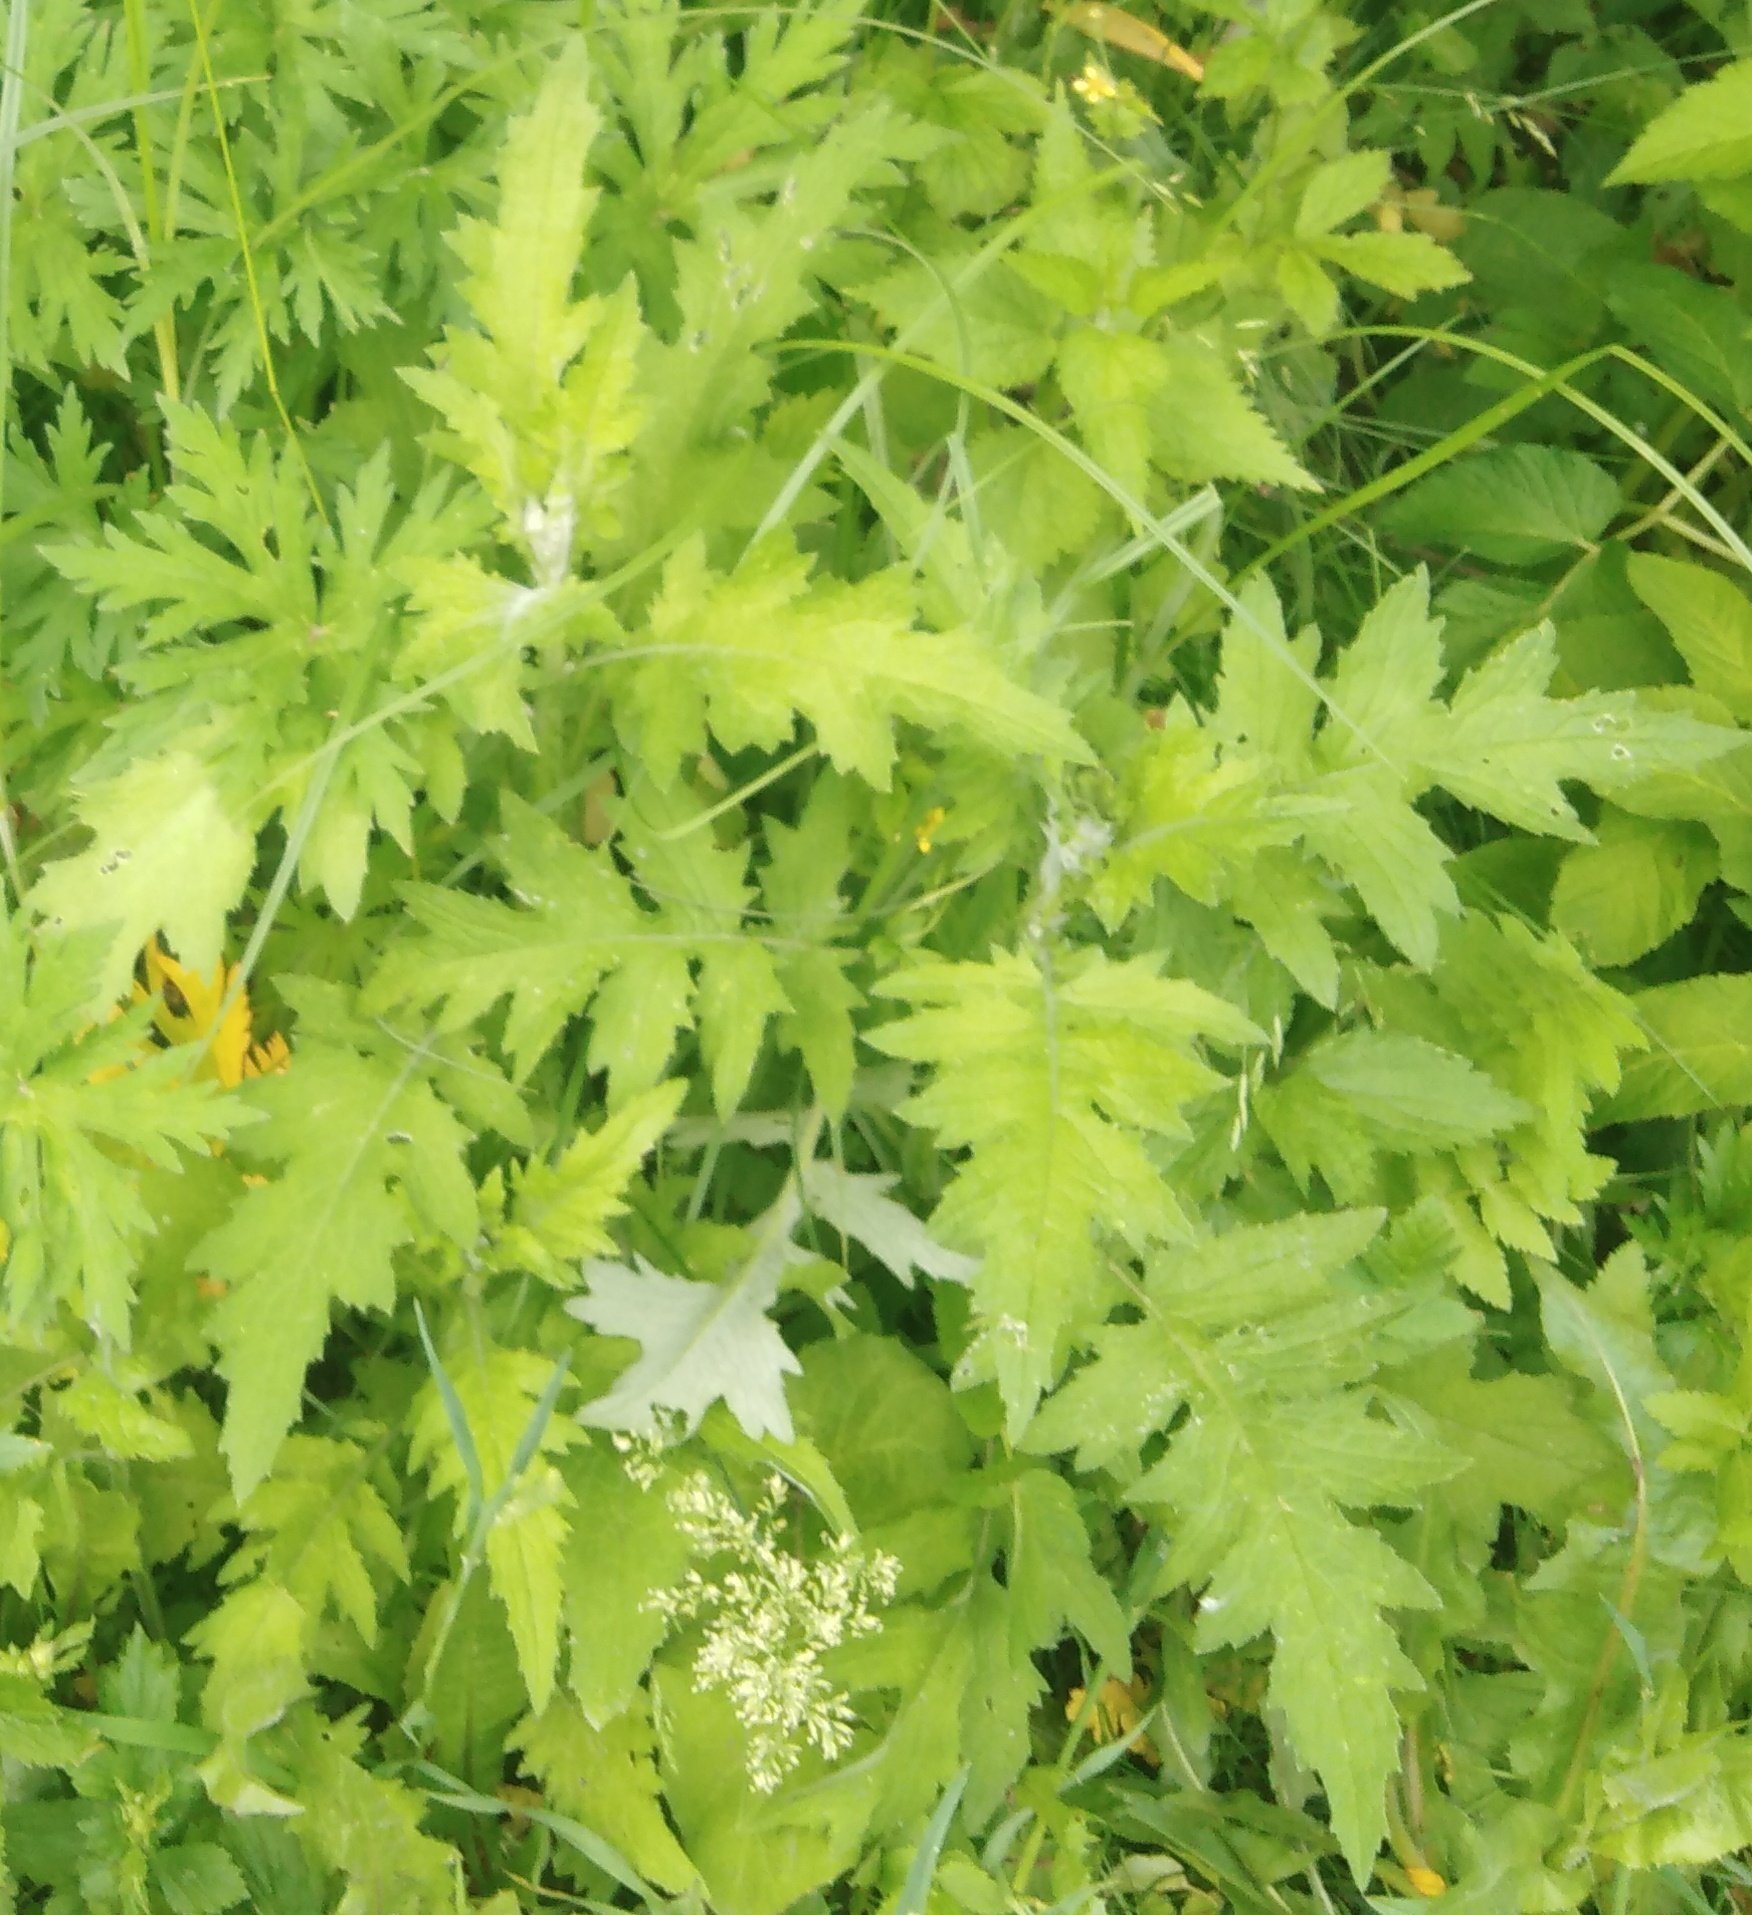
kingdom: Plantae
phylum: Tracheophyta
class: Magnoliopsida
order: Asterales
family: Asteraceae
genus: Cirsium
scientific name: Cirsium heterophyllum
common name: Melancholy thistle
